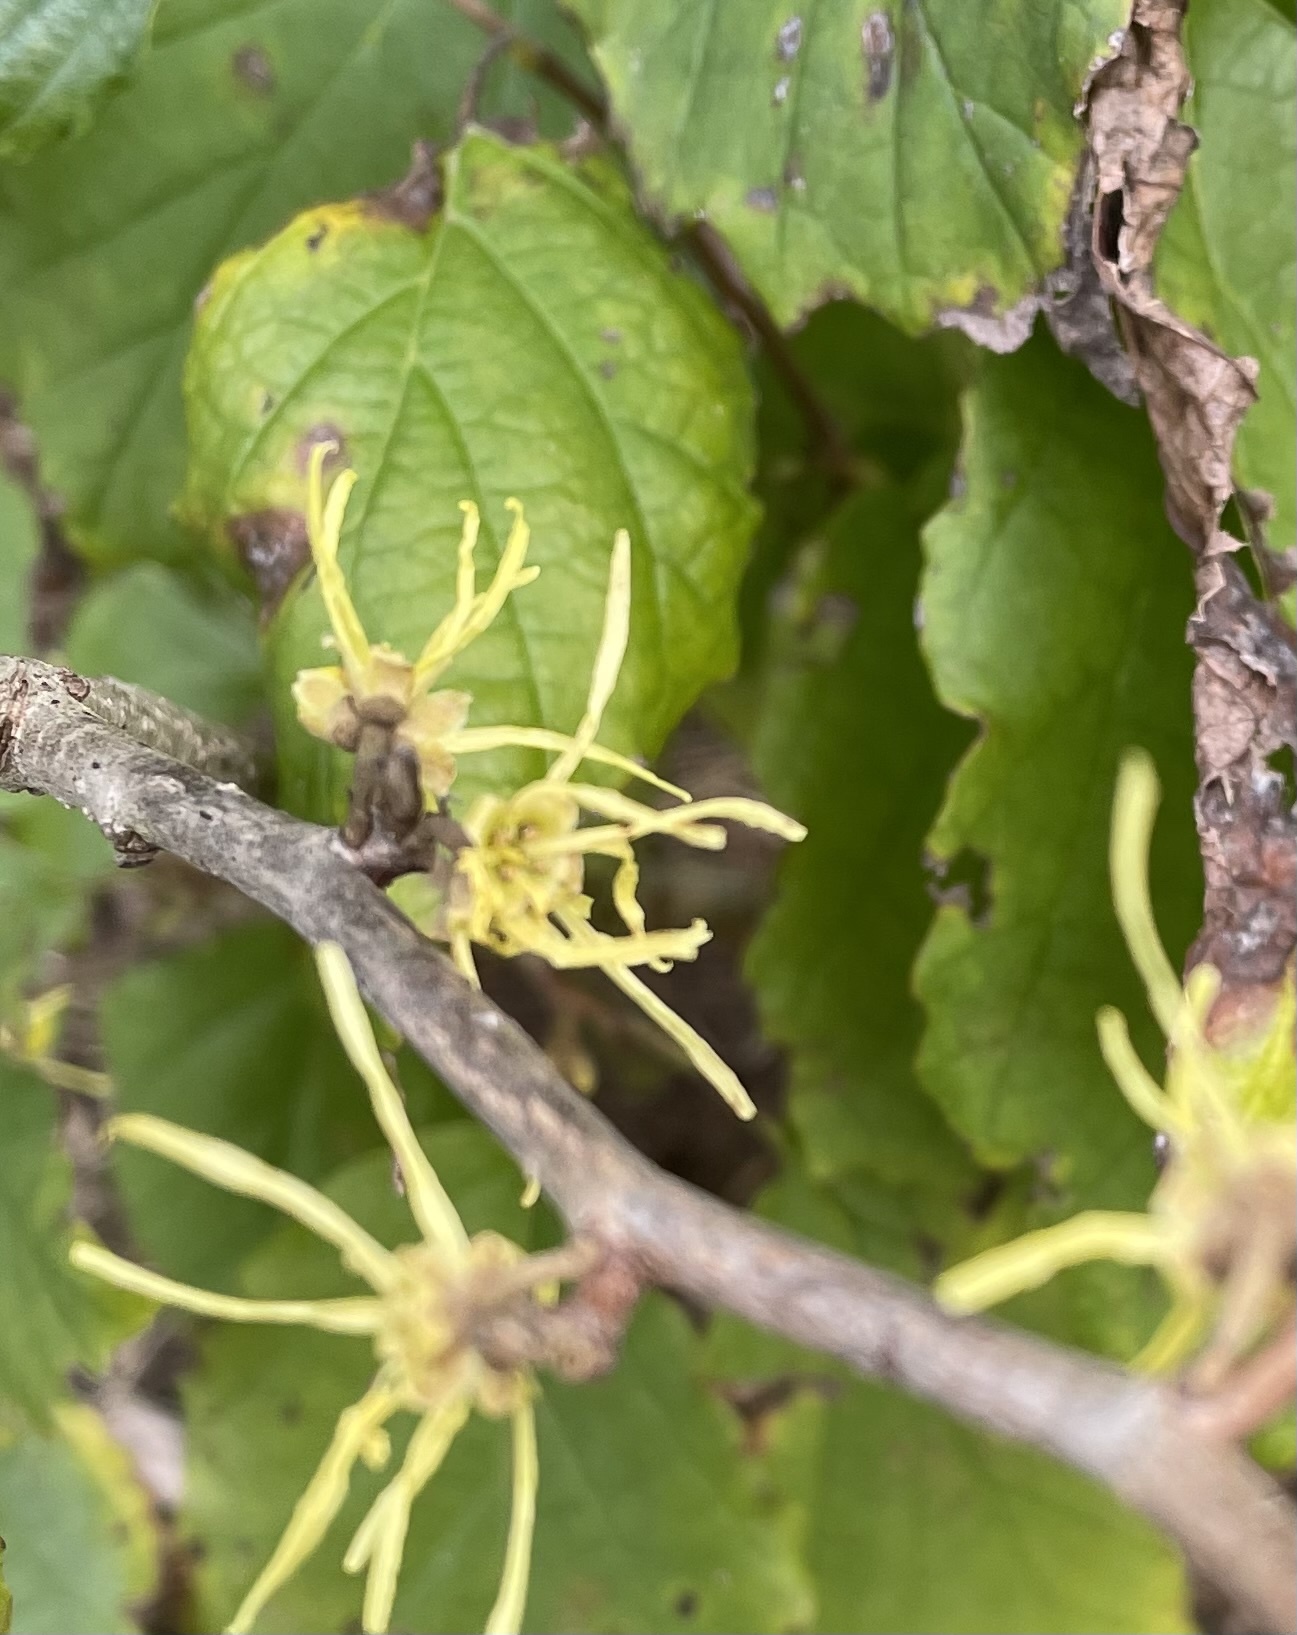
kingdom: Plantae
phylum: Tracheophyta
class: Magnoliopsida
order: Saxifragales
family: Hamamelidaceae
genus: Hamamelis
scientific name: Hamamelis virginiana
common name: Witch-hazel
